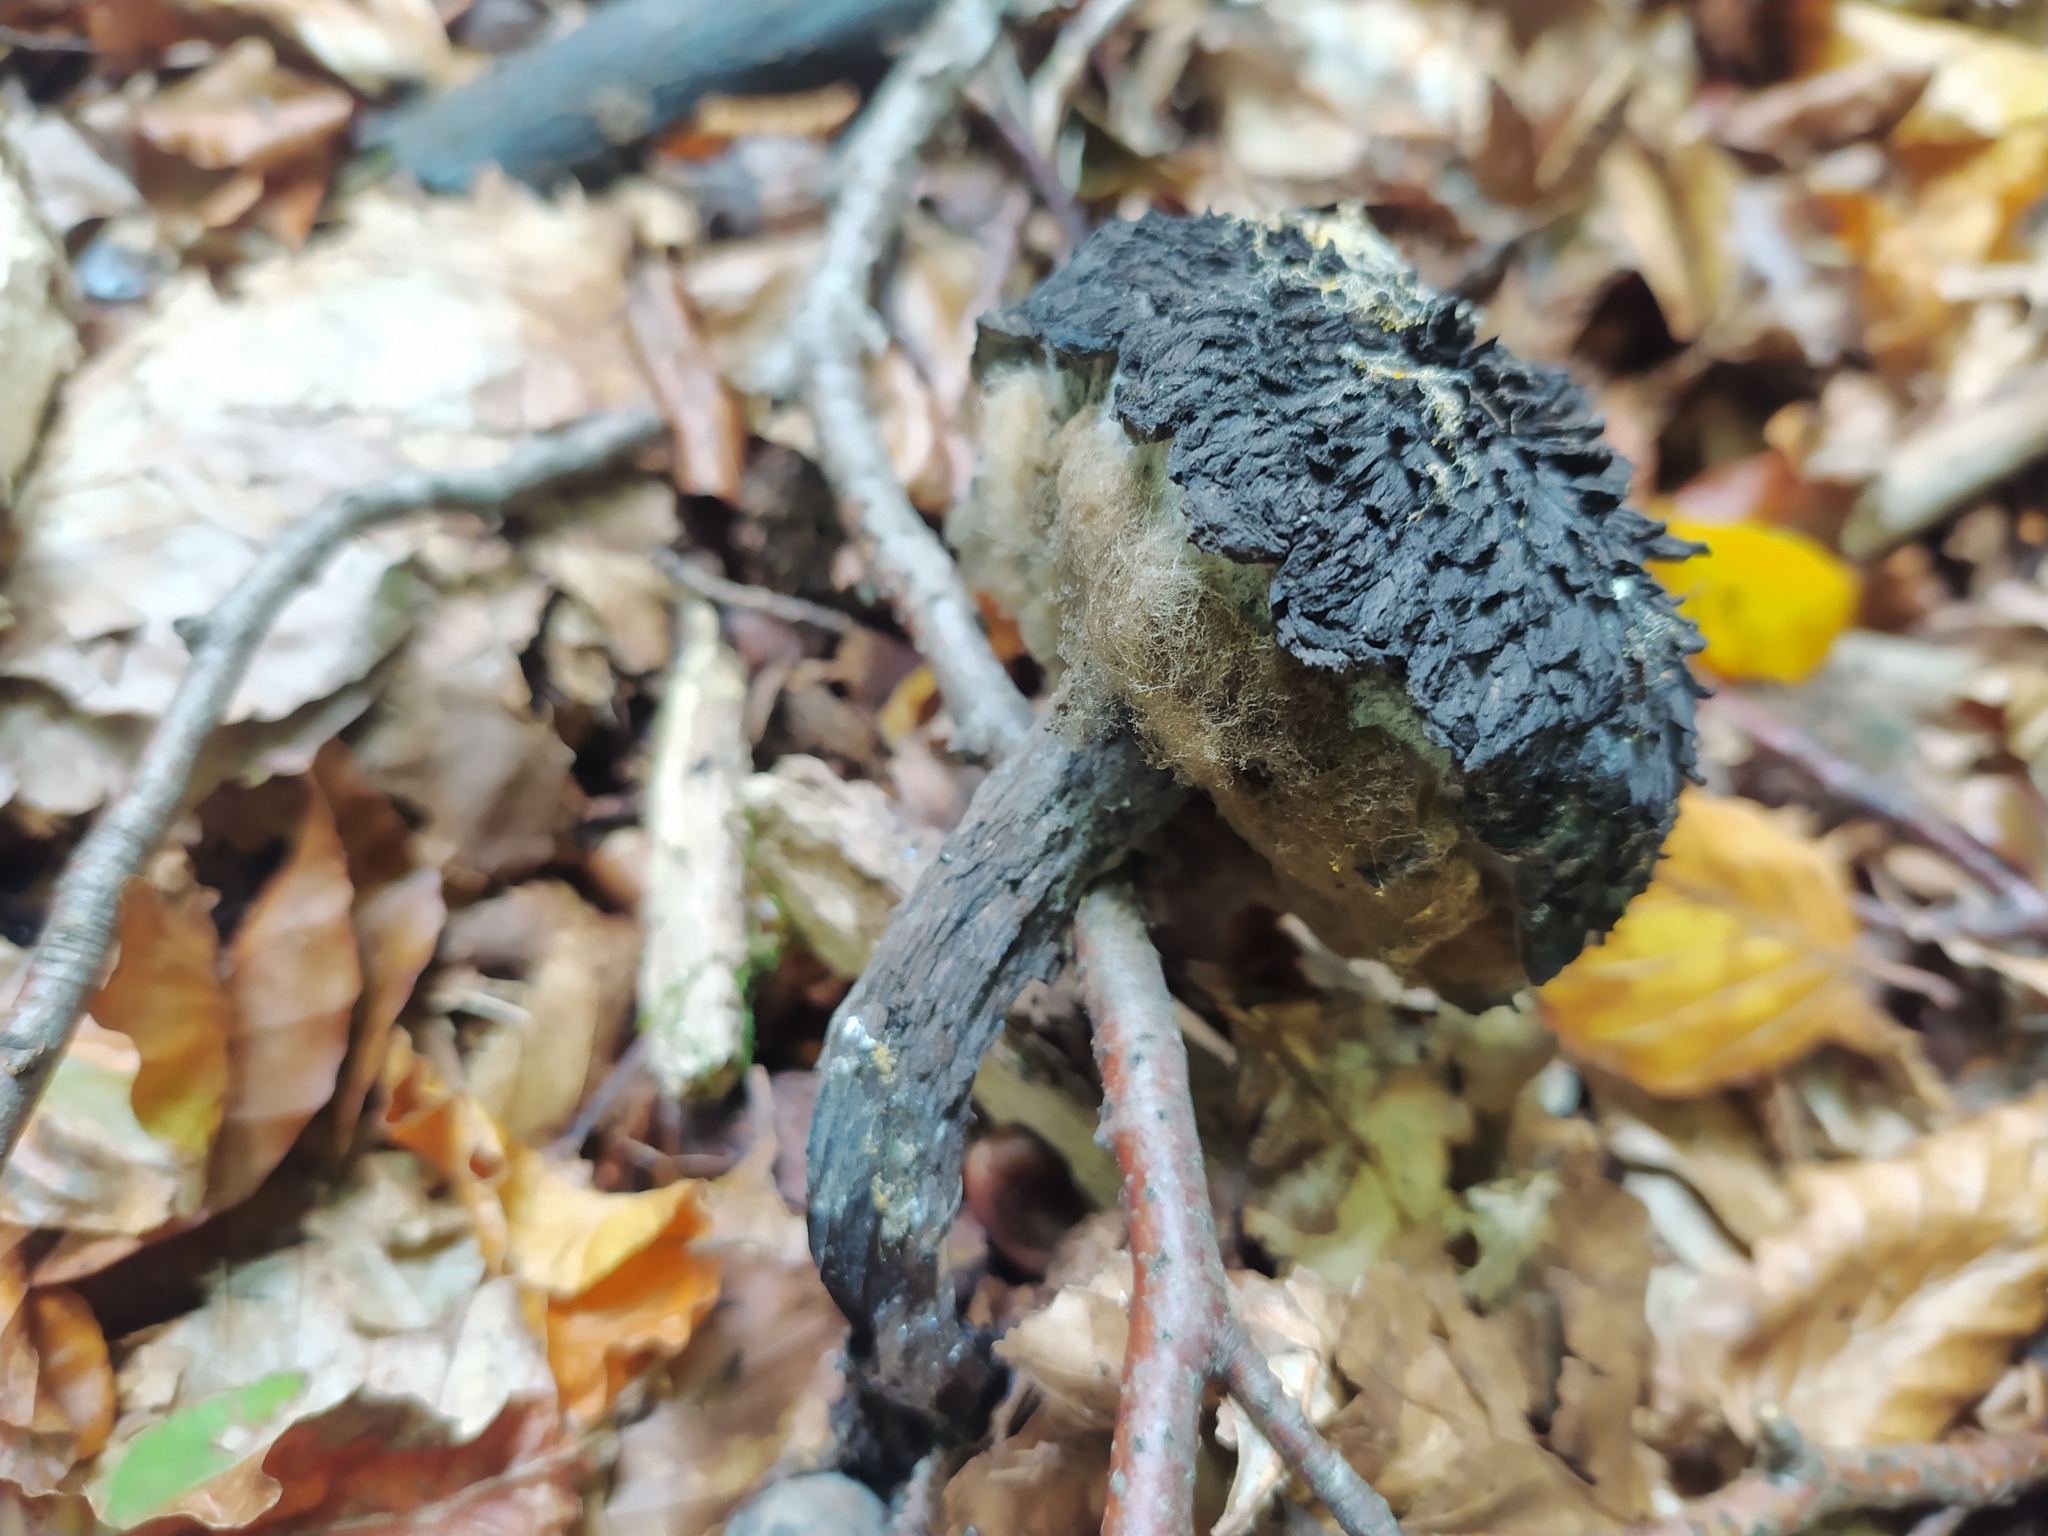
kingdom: Fungi
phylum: Basidiomycota
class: Agaricomycetes
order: Boletales
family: Boletaceae
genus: Strobilomyces
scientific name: Strobilomyces strobilaceus
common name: Old man of the woods
